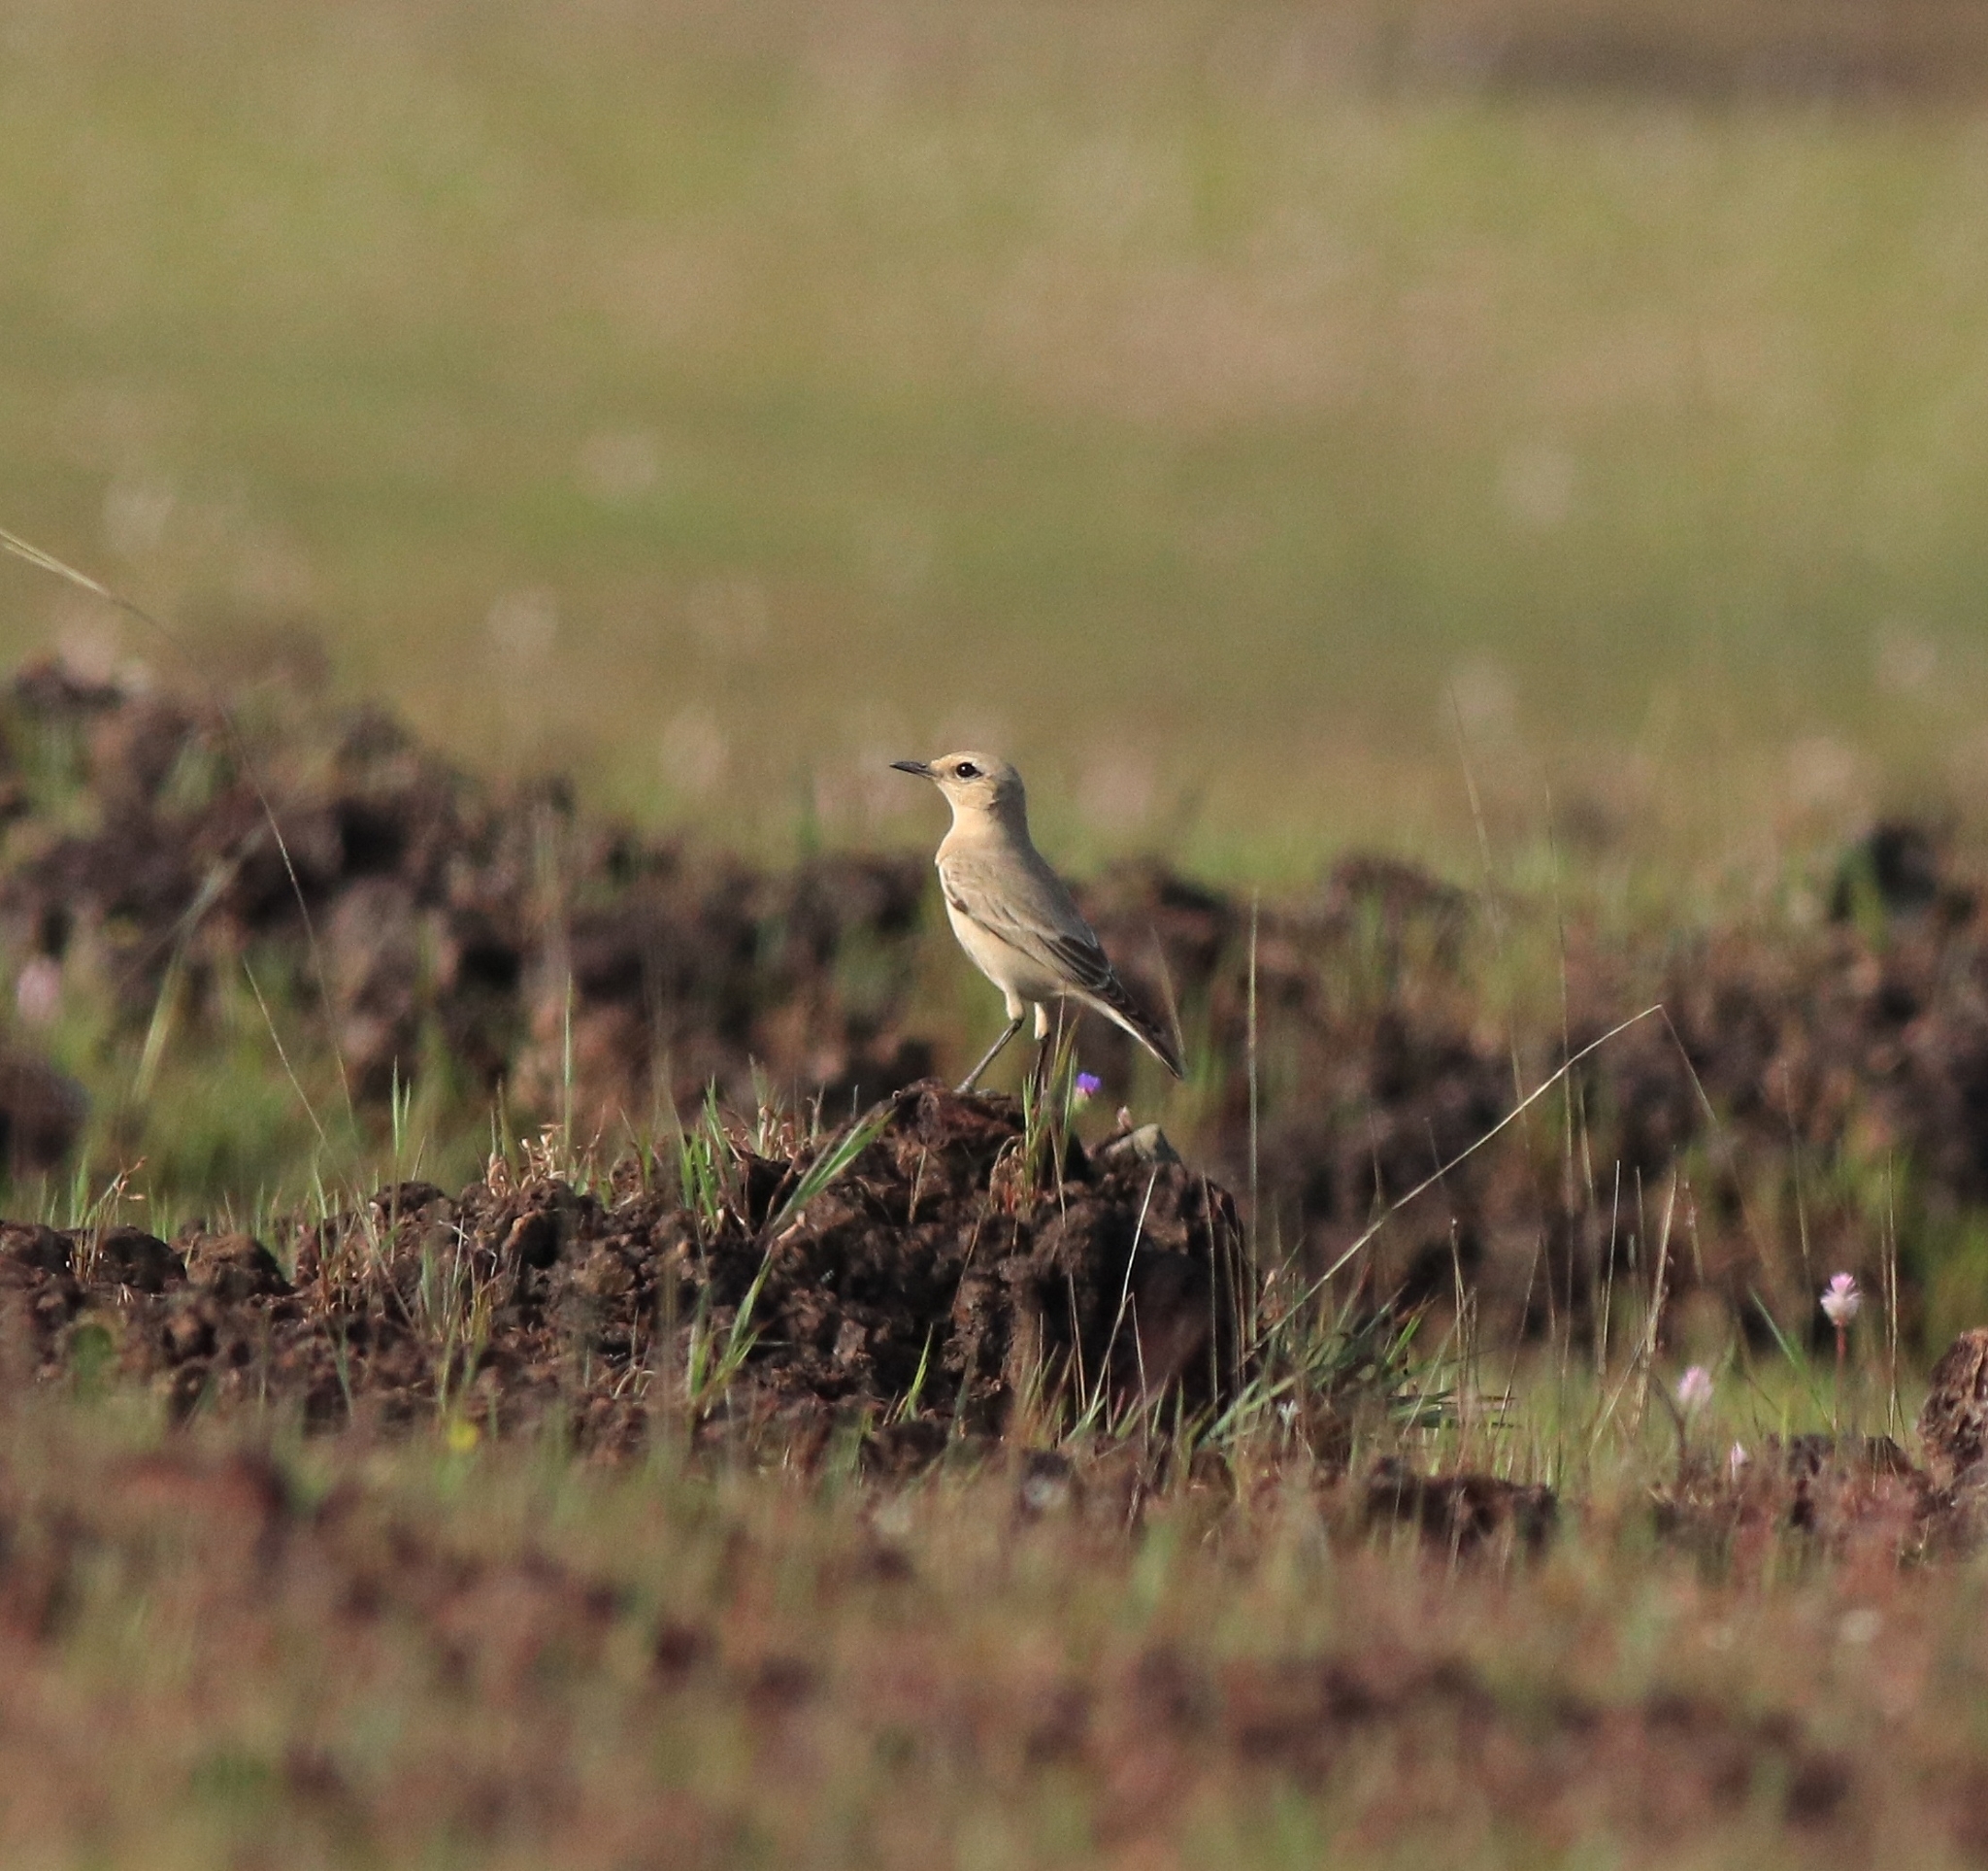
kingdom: Animalia
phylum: Chordata
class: Aves
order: Passeriformes
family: Muscicapidae
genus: Oenanthe
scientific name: Oenanthe isabellina
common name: Isabelline wheatear
